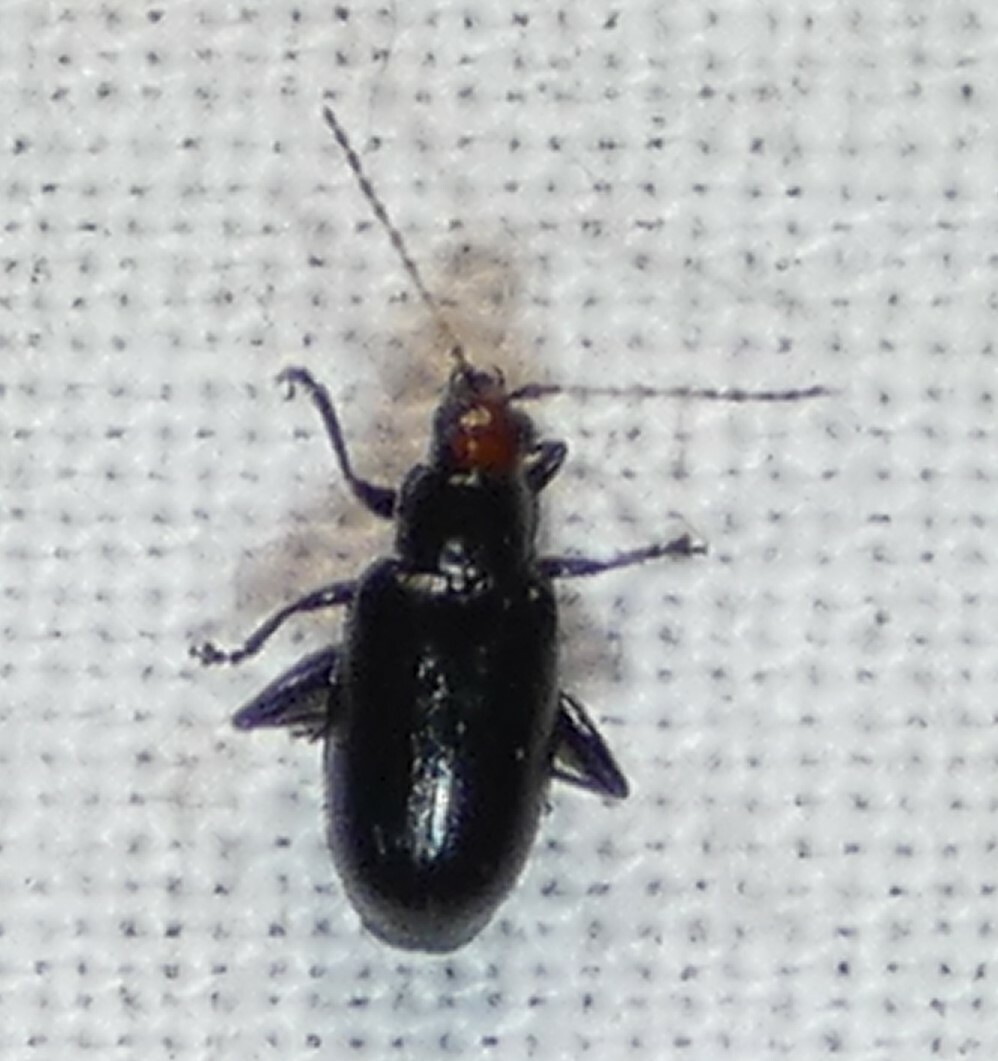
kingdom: Animalia
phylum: Arthropoda
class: Insecta
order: Coleoptera
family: Chrysomelidae
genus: Systena
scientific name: Systena frontalis
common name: Red-headed flea beetle
